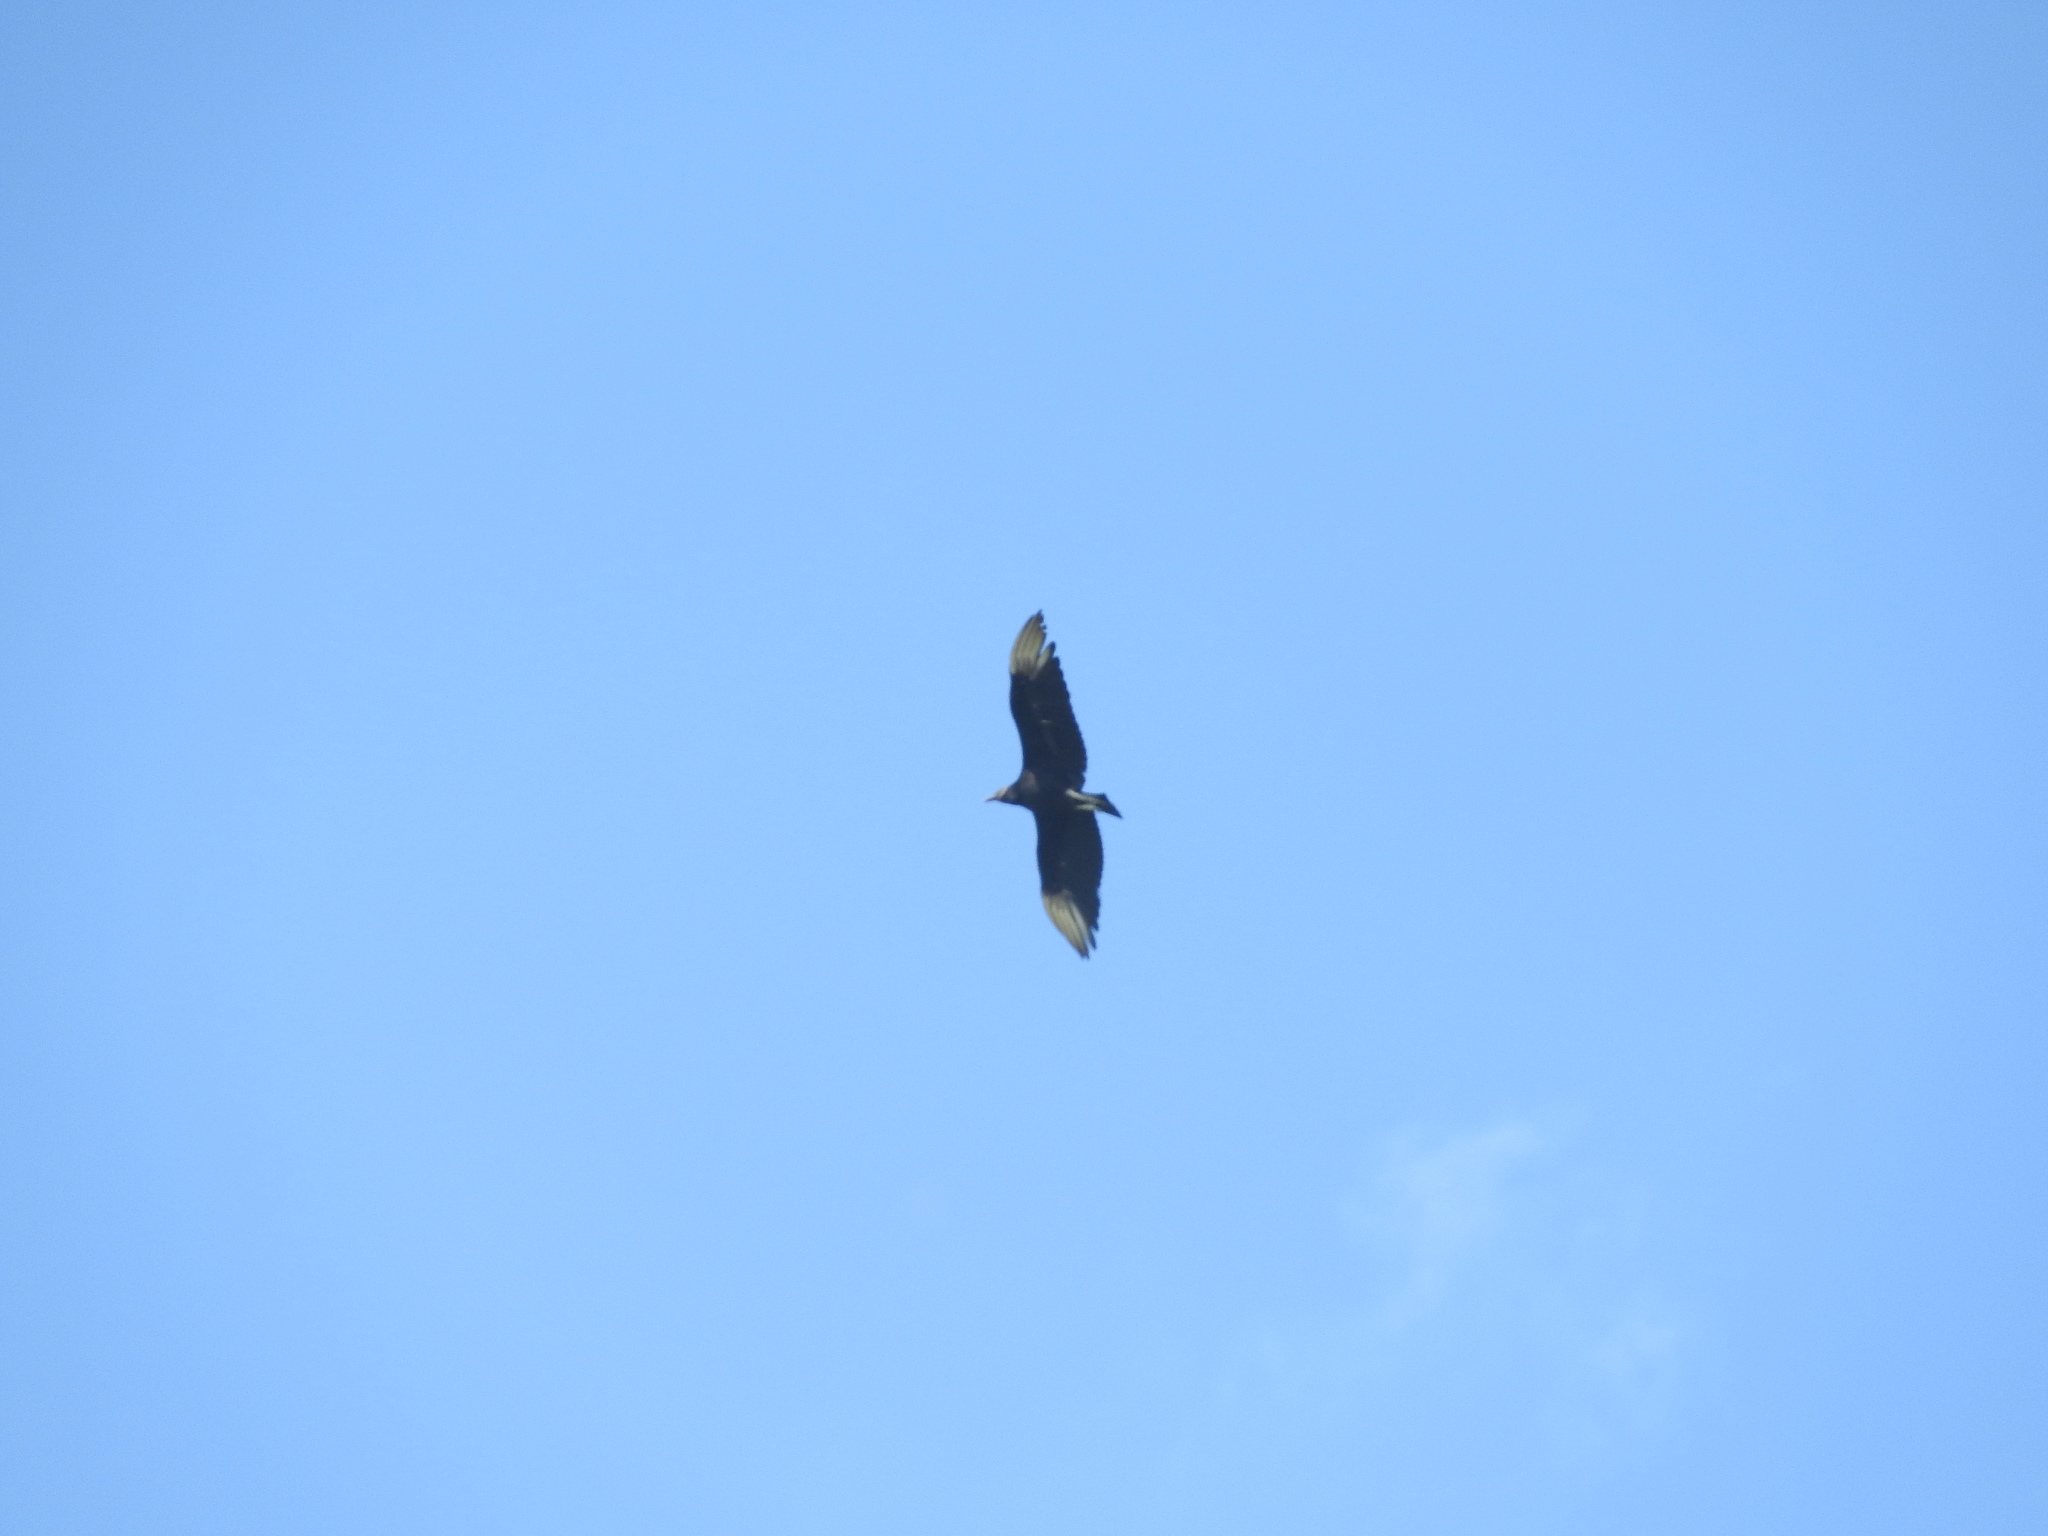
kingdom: Animalia
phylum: Chordata
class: Aves
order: Accipitriformes
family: Cathartidae
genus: Coragyps
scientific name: Coragyps atratus
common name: Black vulture
